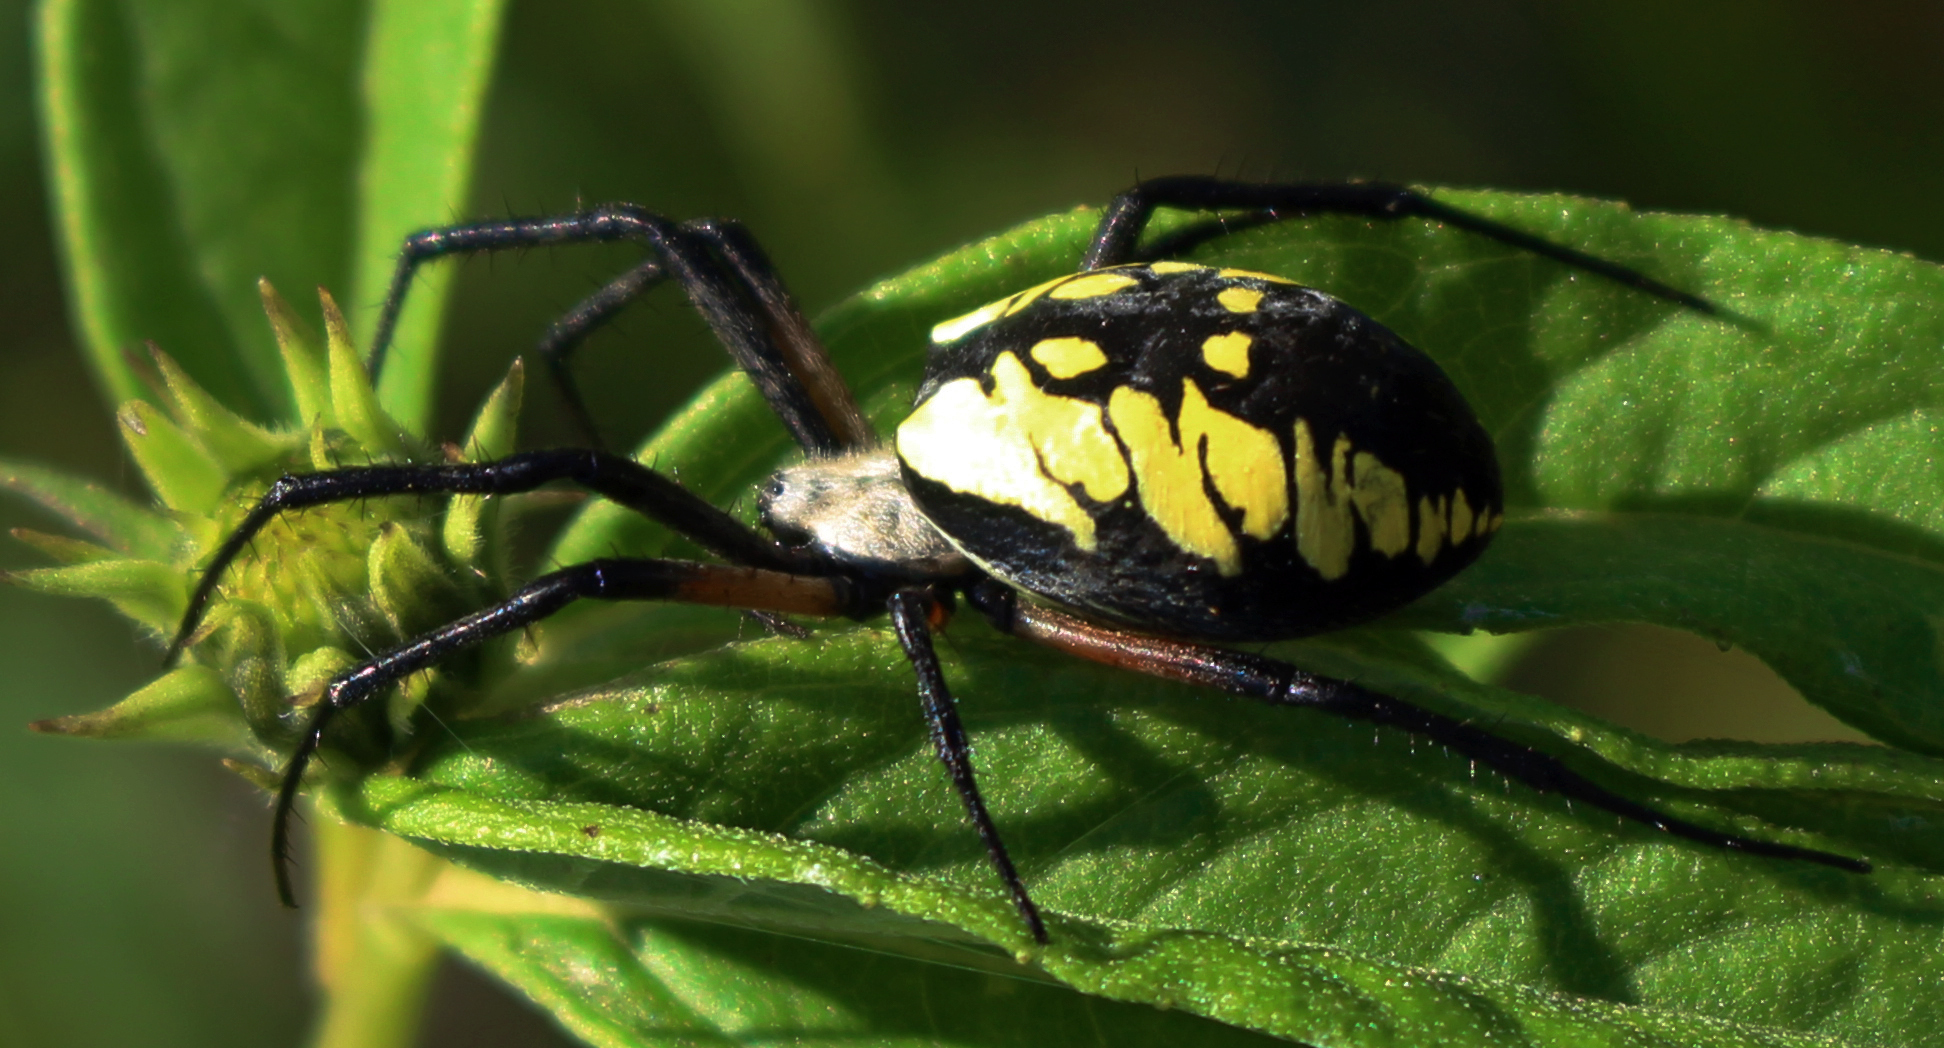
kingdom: Animalia
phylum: Arthropoda
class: Arachnida
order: Araneae
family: Araneidae
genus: Argiope
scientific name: Argiope aurantia
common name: Orb weavers
